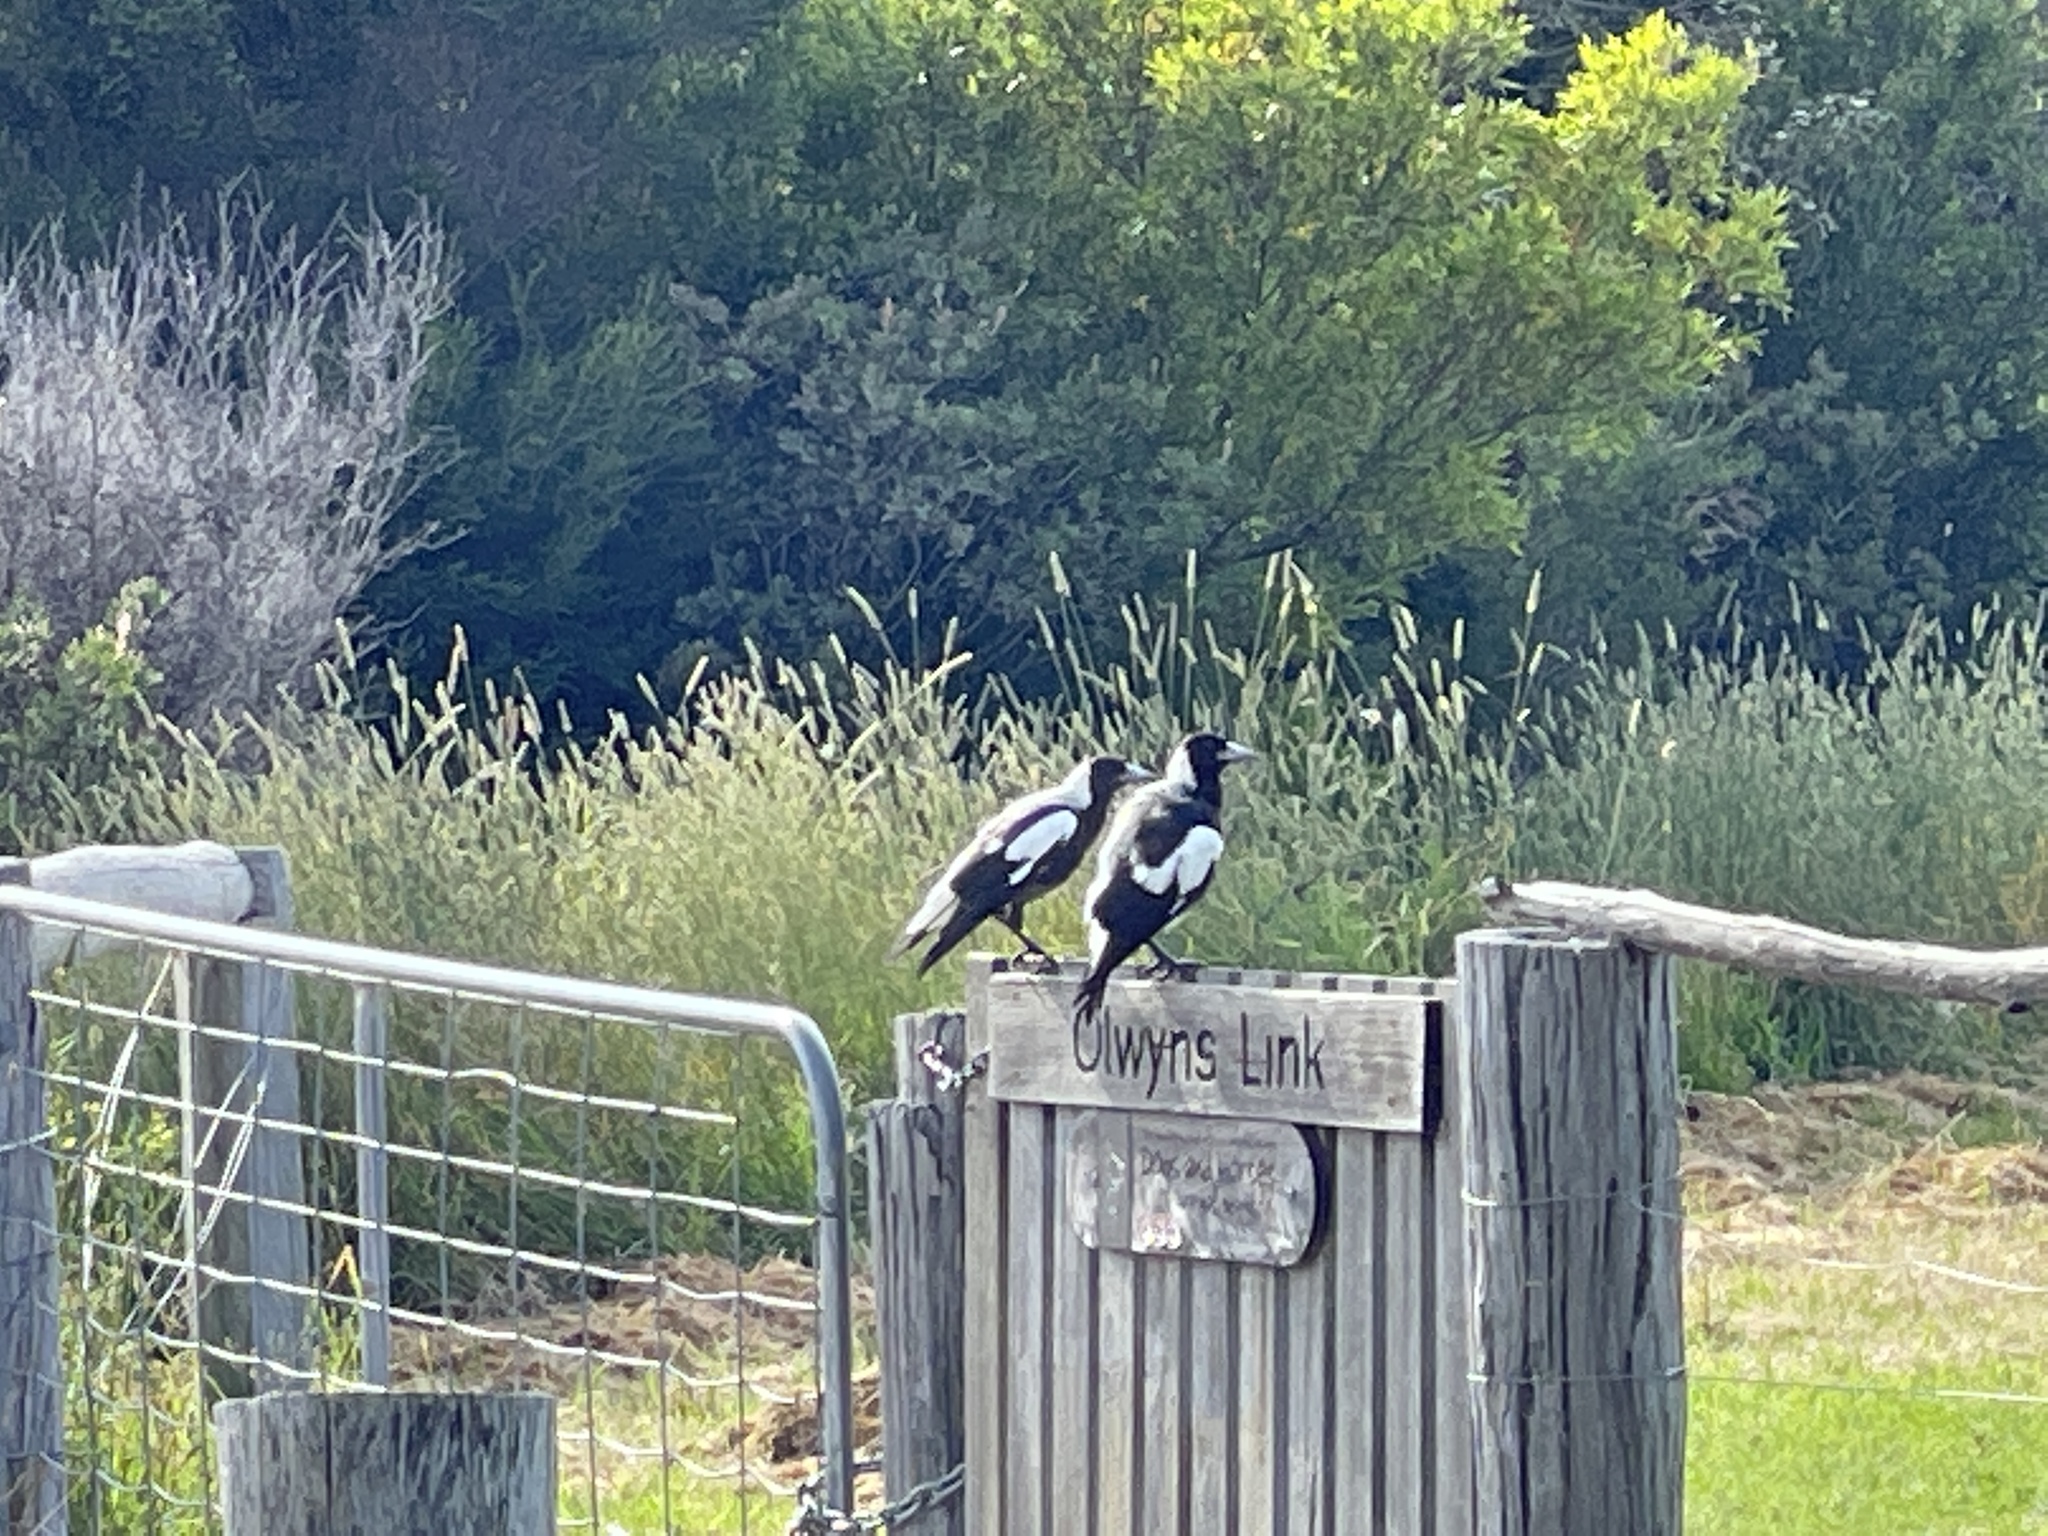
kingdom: Animalia
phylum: Chordata
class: Aves
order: Passeriformes
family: Cracticidae
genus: Gymnorhina
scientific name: Gymnorhina tibicen
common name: Australian magpie
